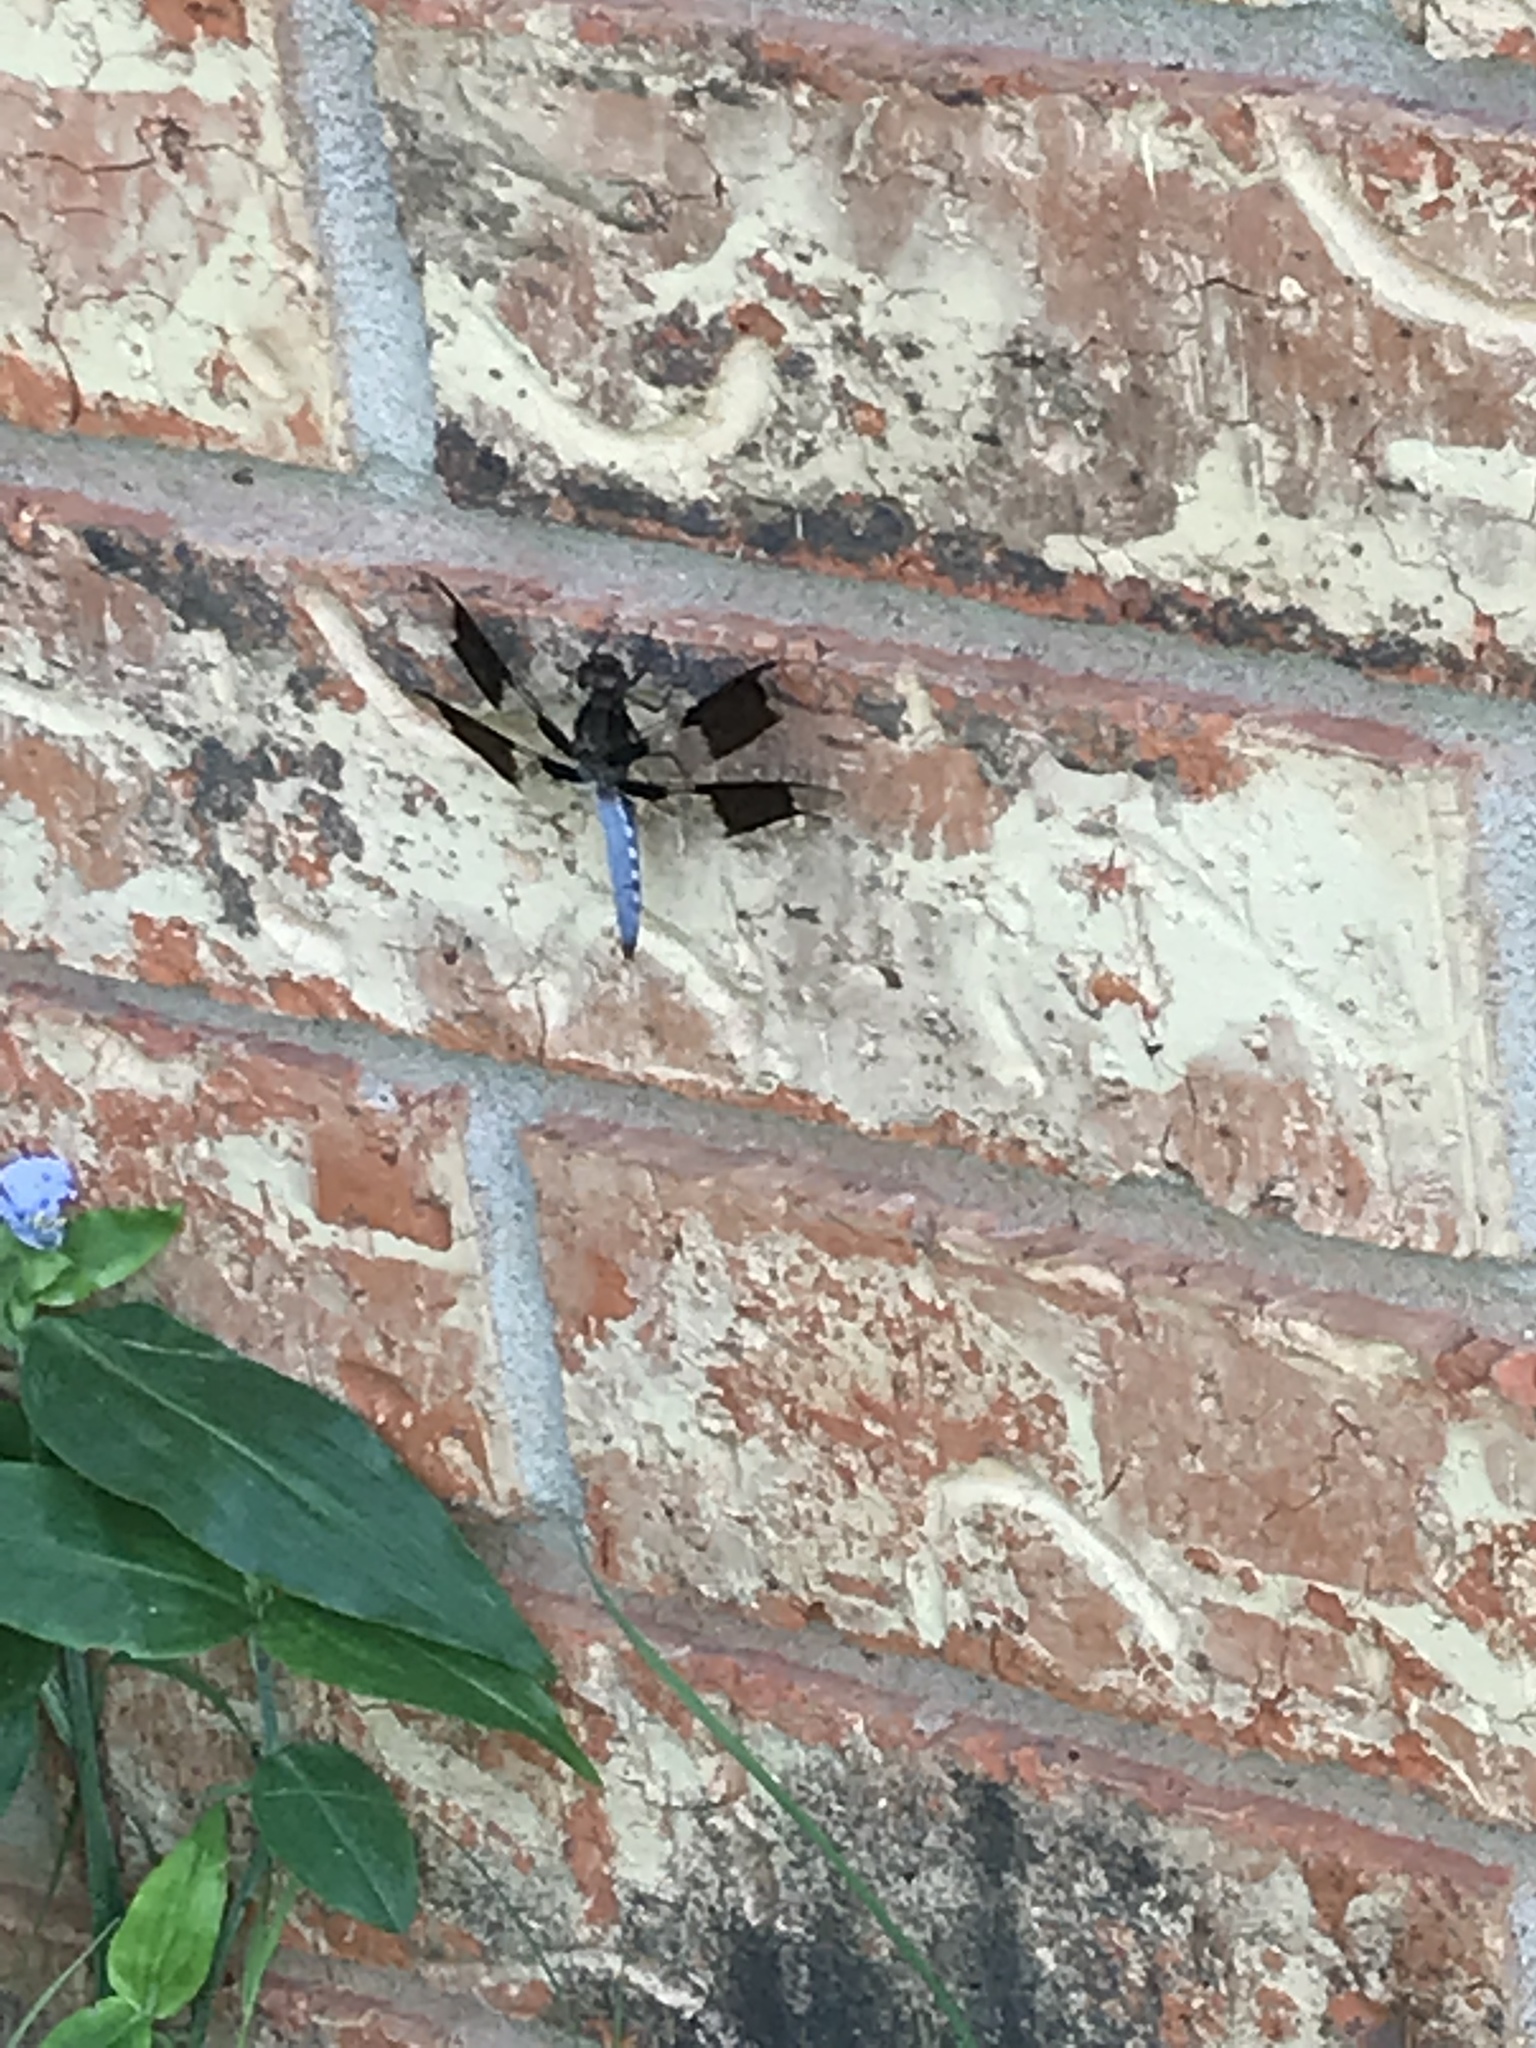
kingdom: Animalia
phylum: Arthropoda
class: Insecta
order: Odonata
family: Libellulidae
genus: Plathemis
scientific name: Plathemis lydia
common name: Common whitetail
